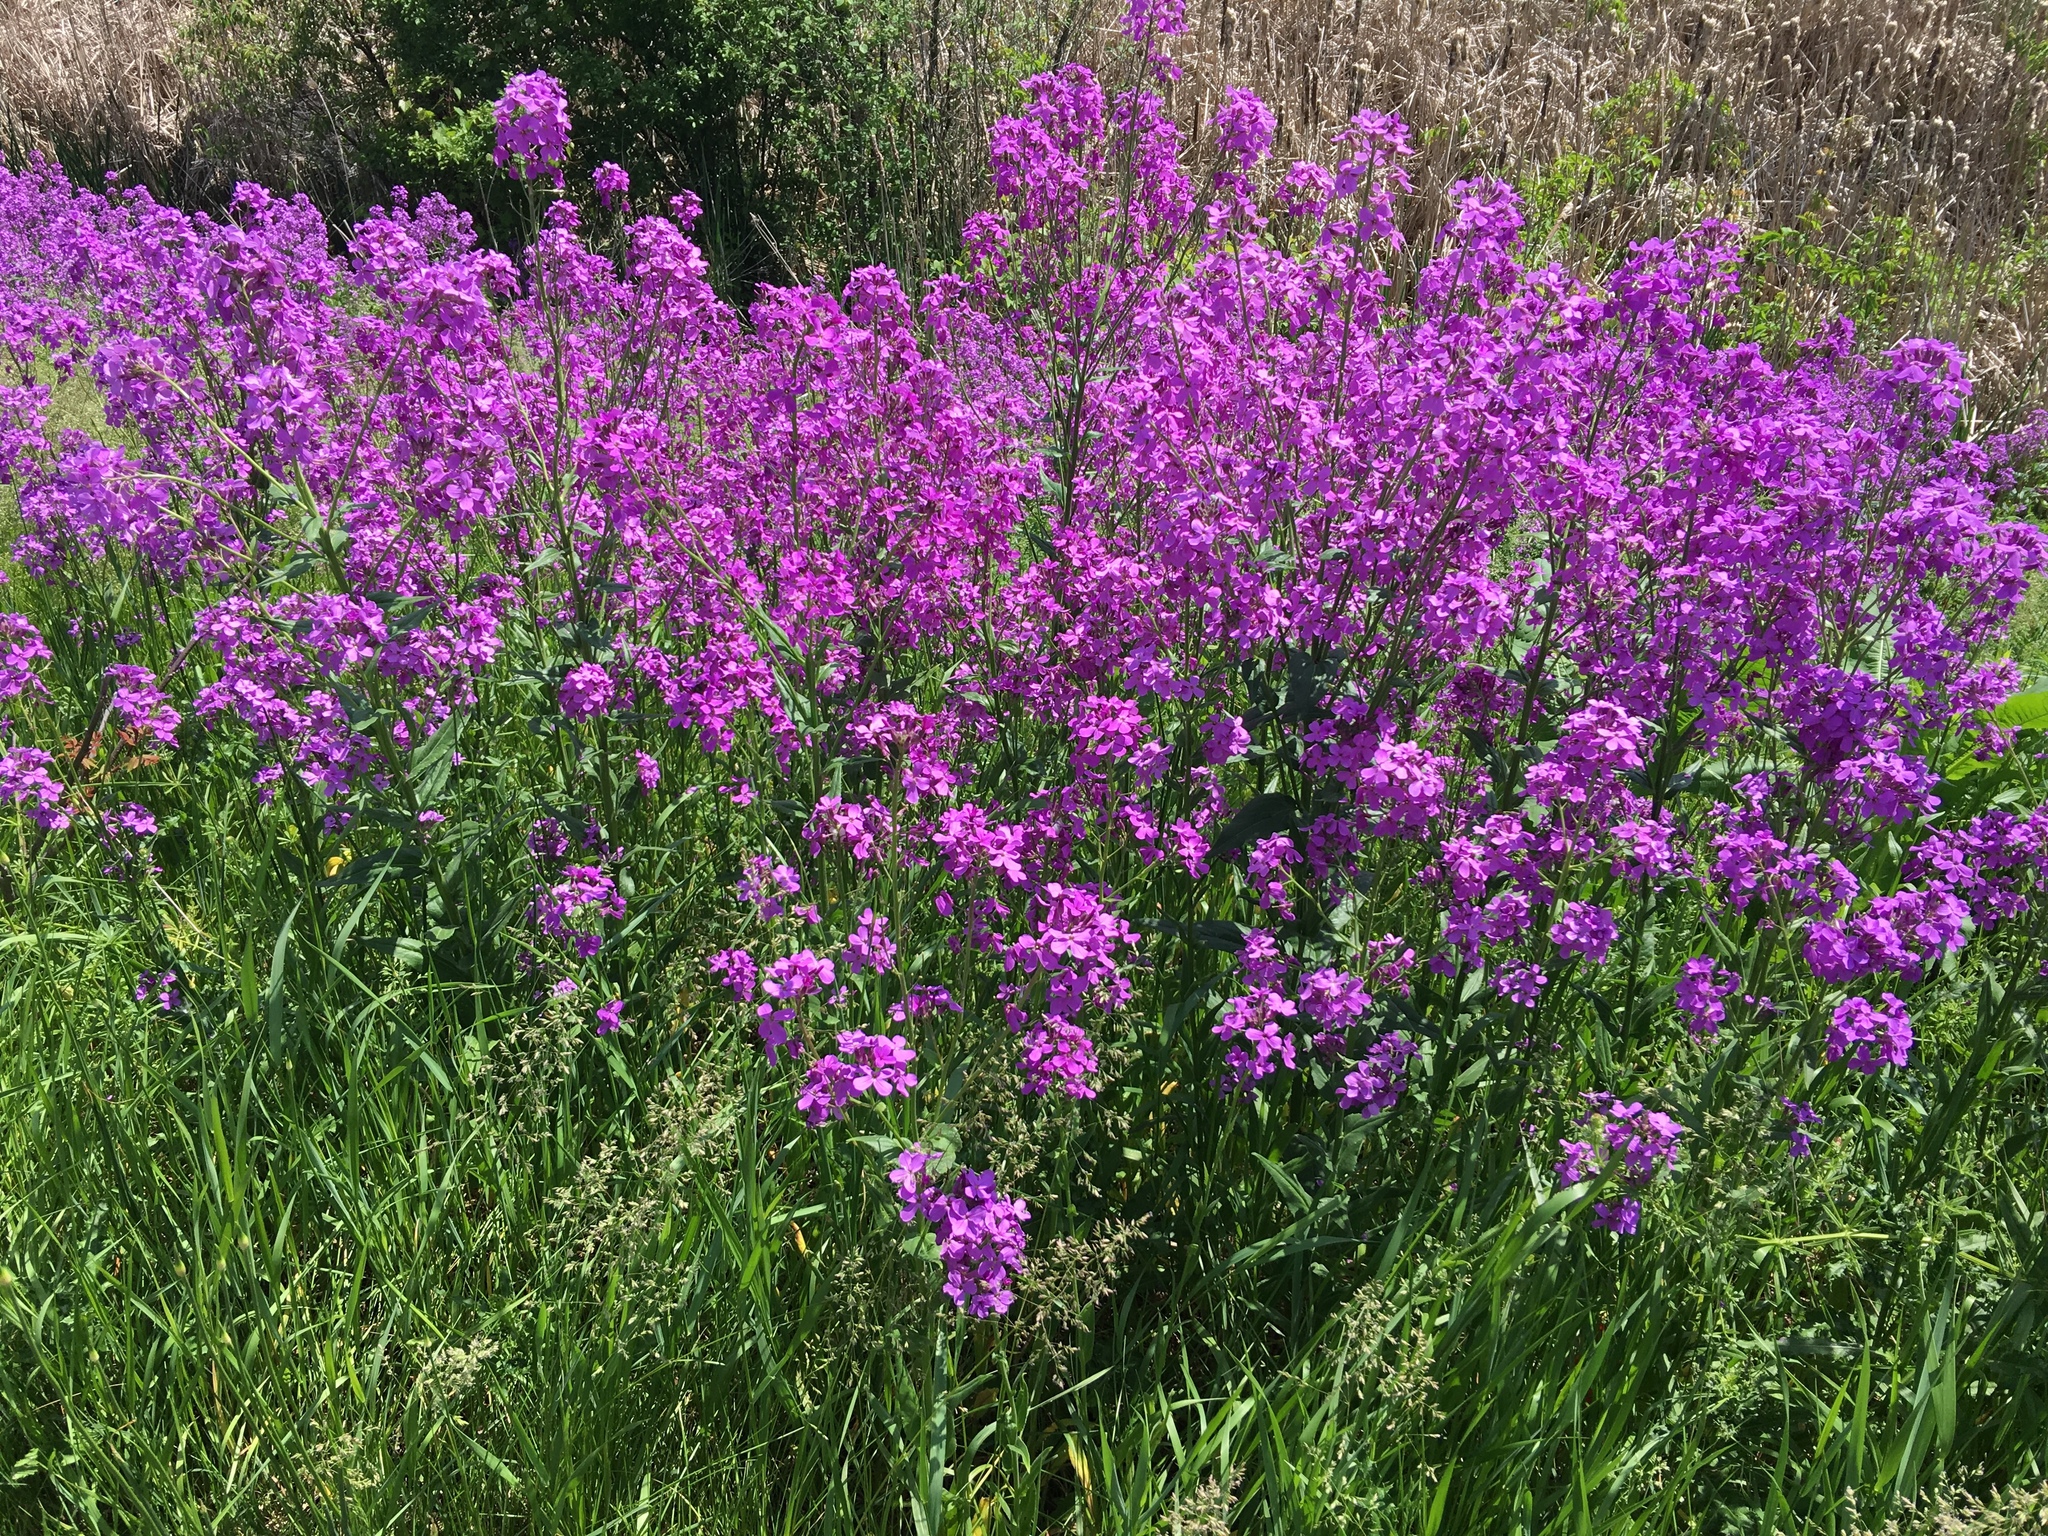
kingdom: Plantae
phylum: Tracheophyta
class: Magnoliopsida
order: Brassicales
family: Brassicaceae
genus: Hesperis
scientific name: Hesperis matronalis
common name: Dame's-violet
